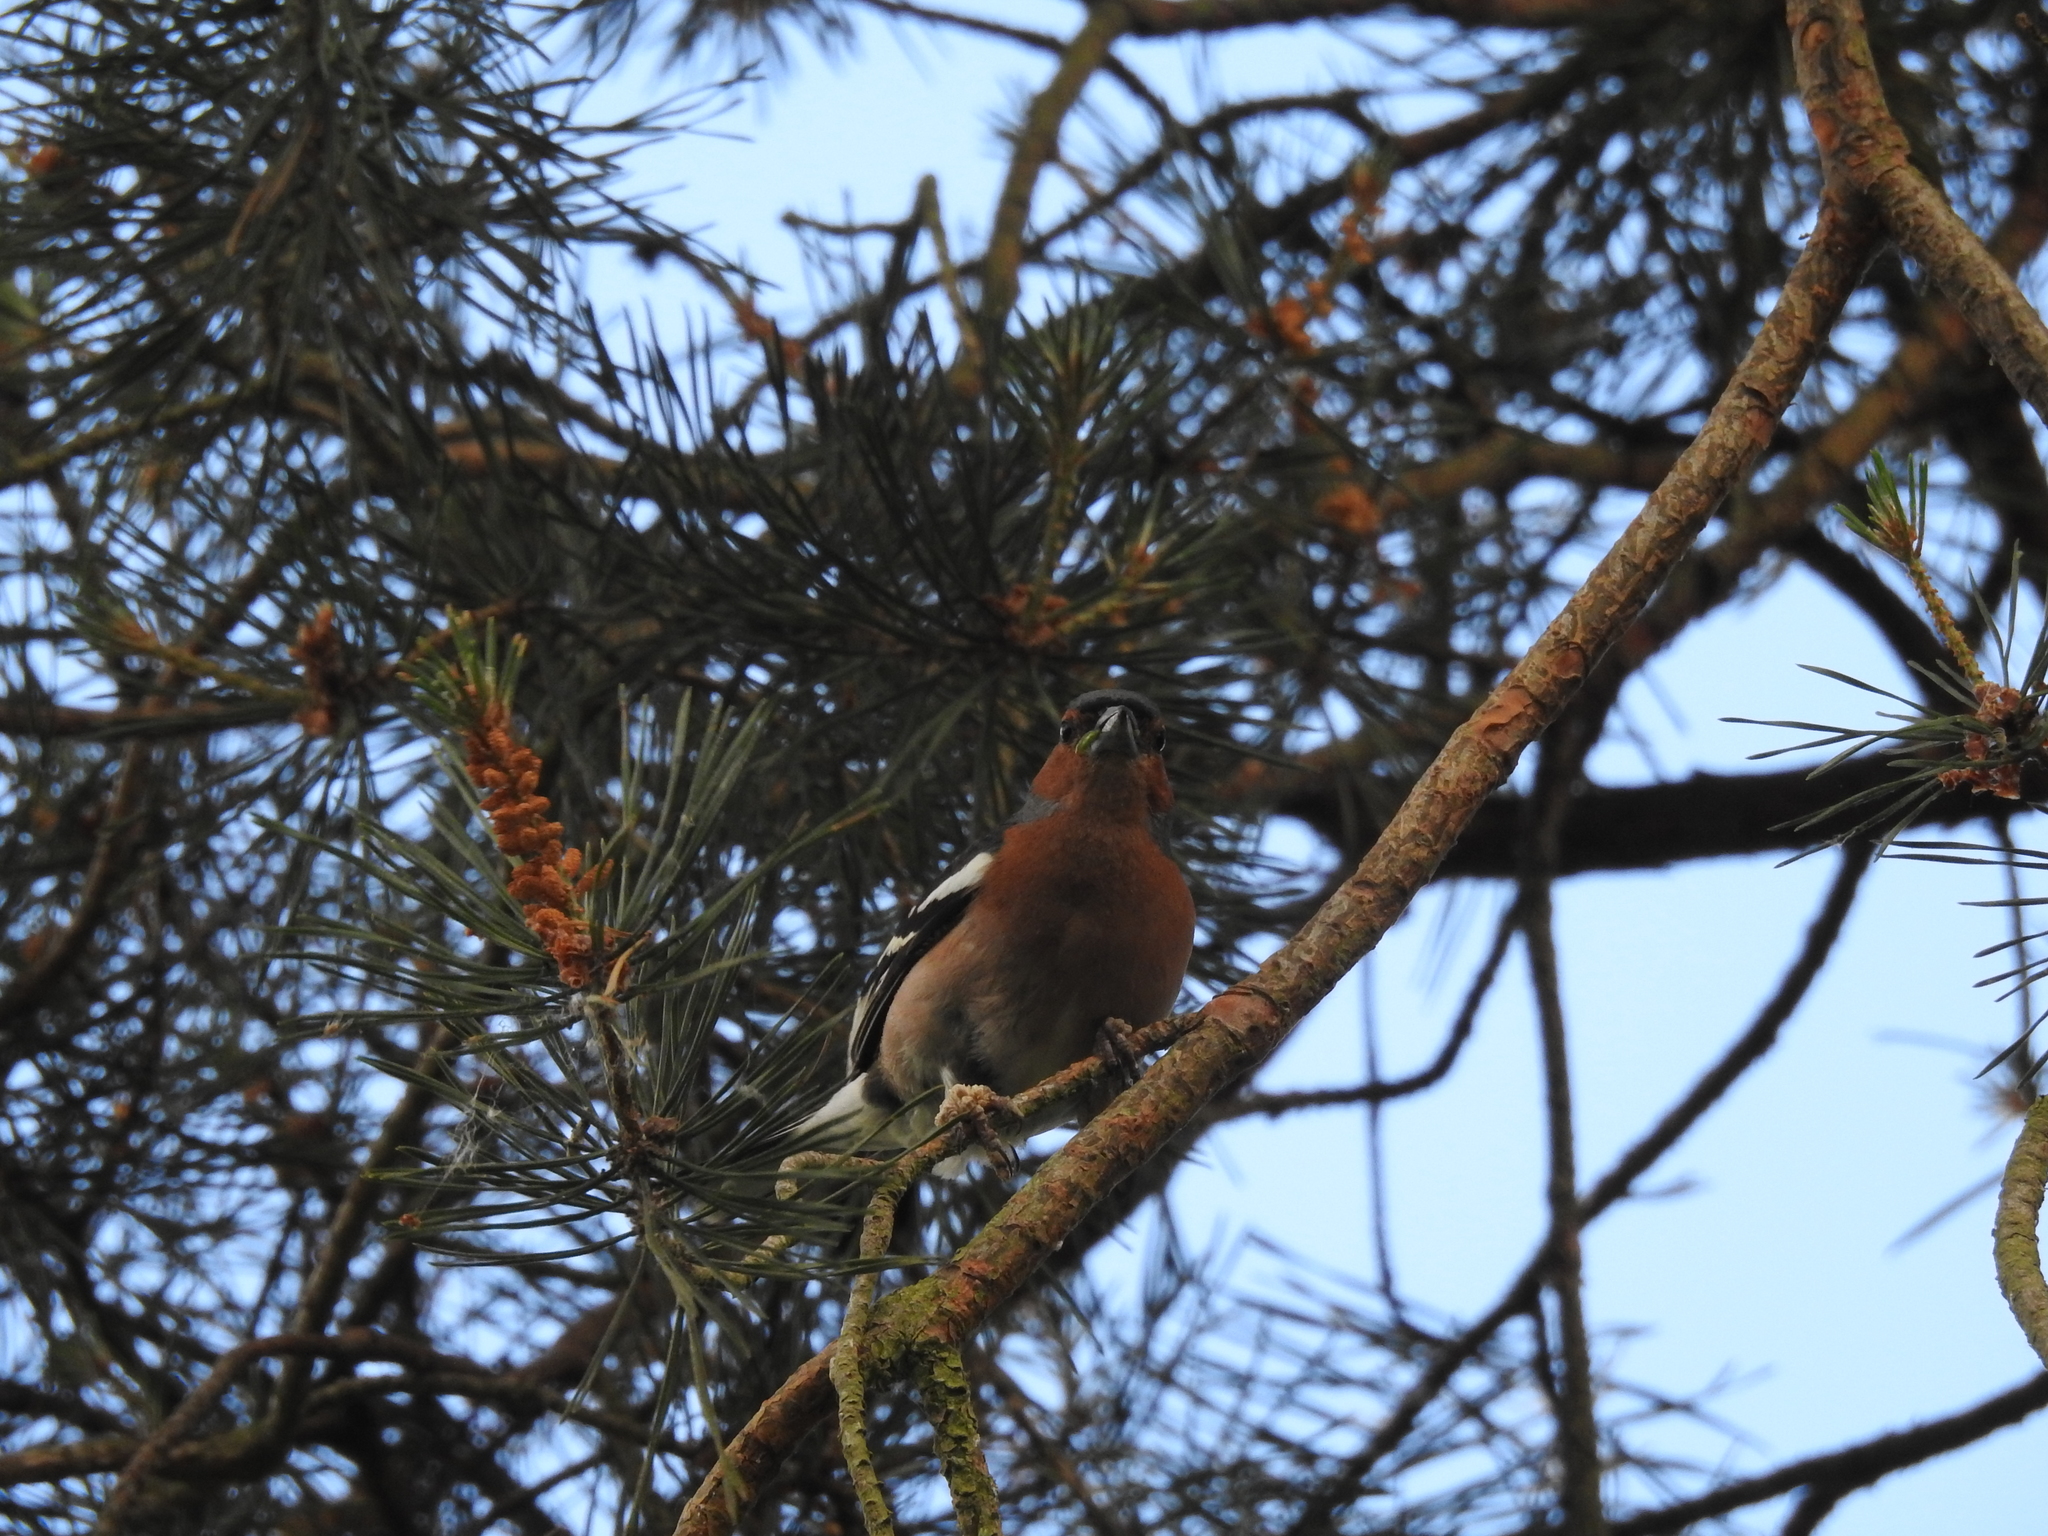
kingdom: Animalia
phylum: Chordata
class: Aves
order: Passeriformes
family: Fringillidae
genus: Fringilla
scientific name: Fringilla coelebs
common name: Common chaffinch
